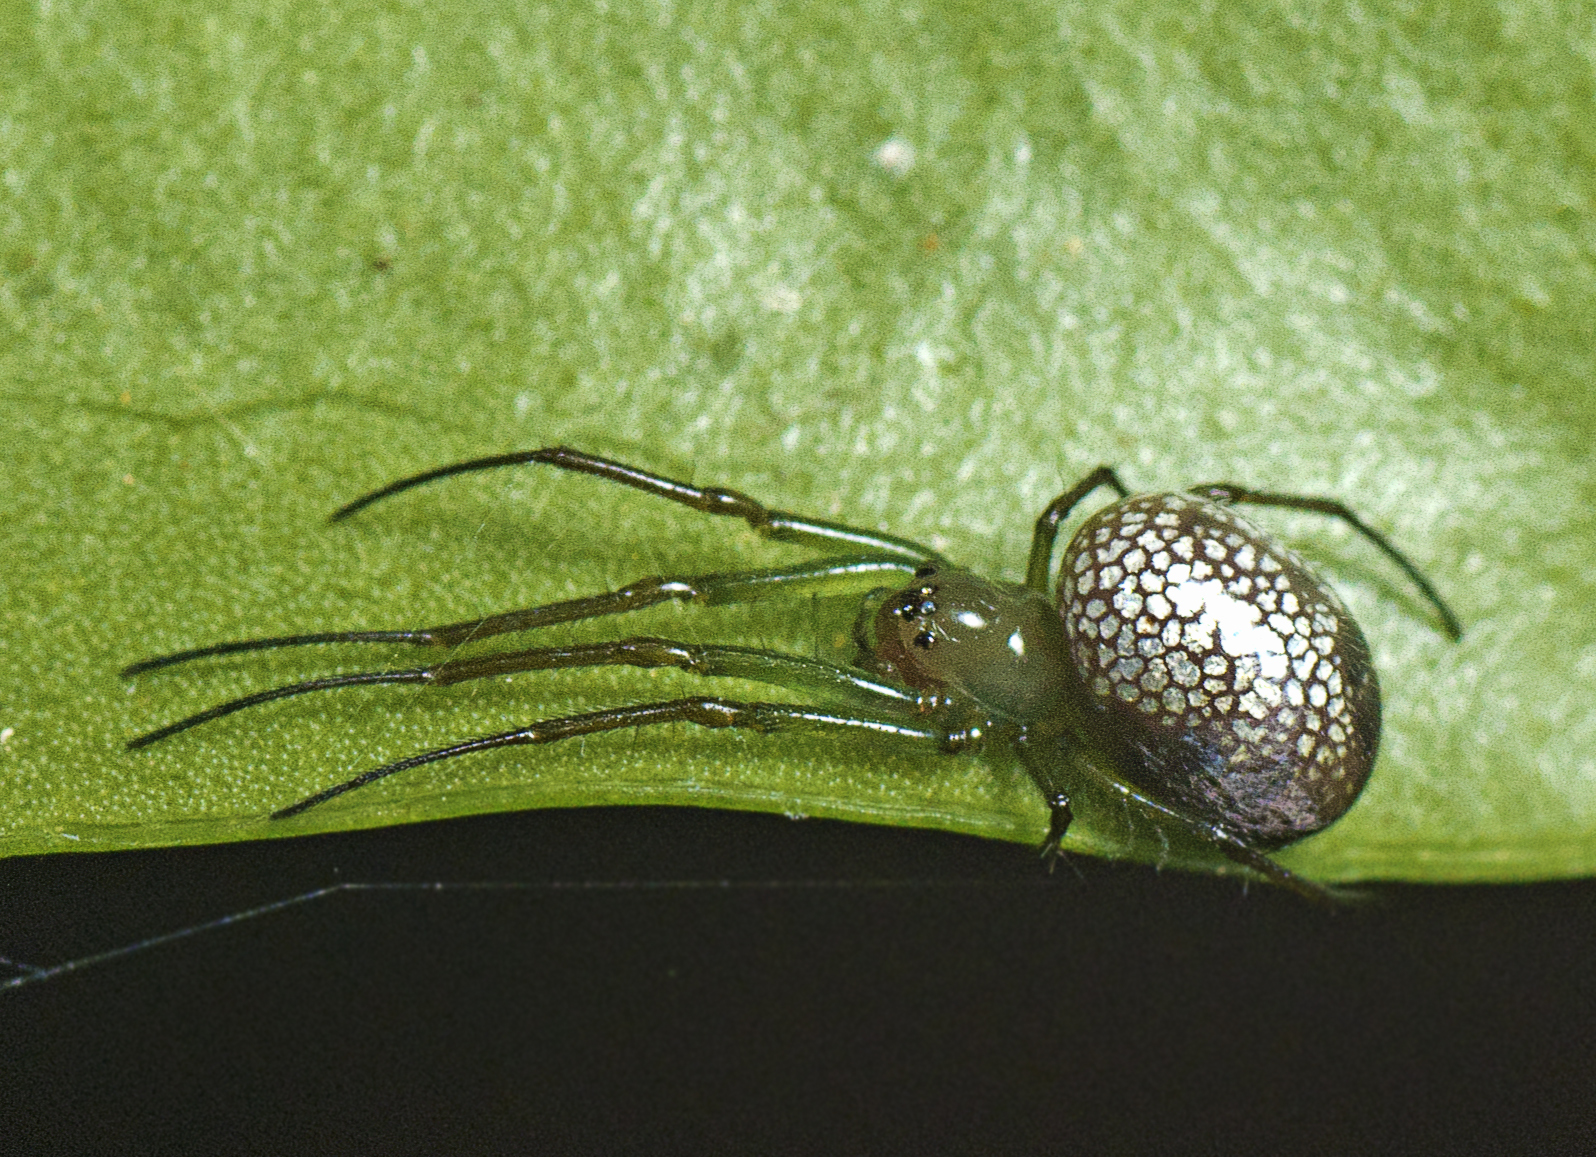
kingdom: Animalia
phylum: Arthropoda
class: Arachnida
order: Araneae
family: Tetragnathidae
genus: Mesida
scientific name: Mesida argentiopunctata
